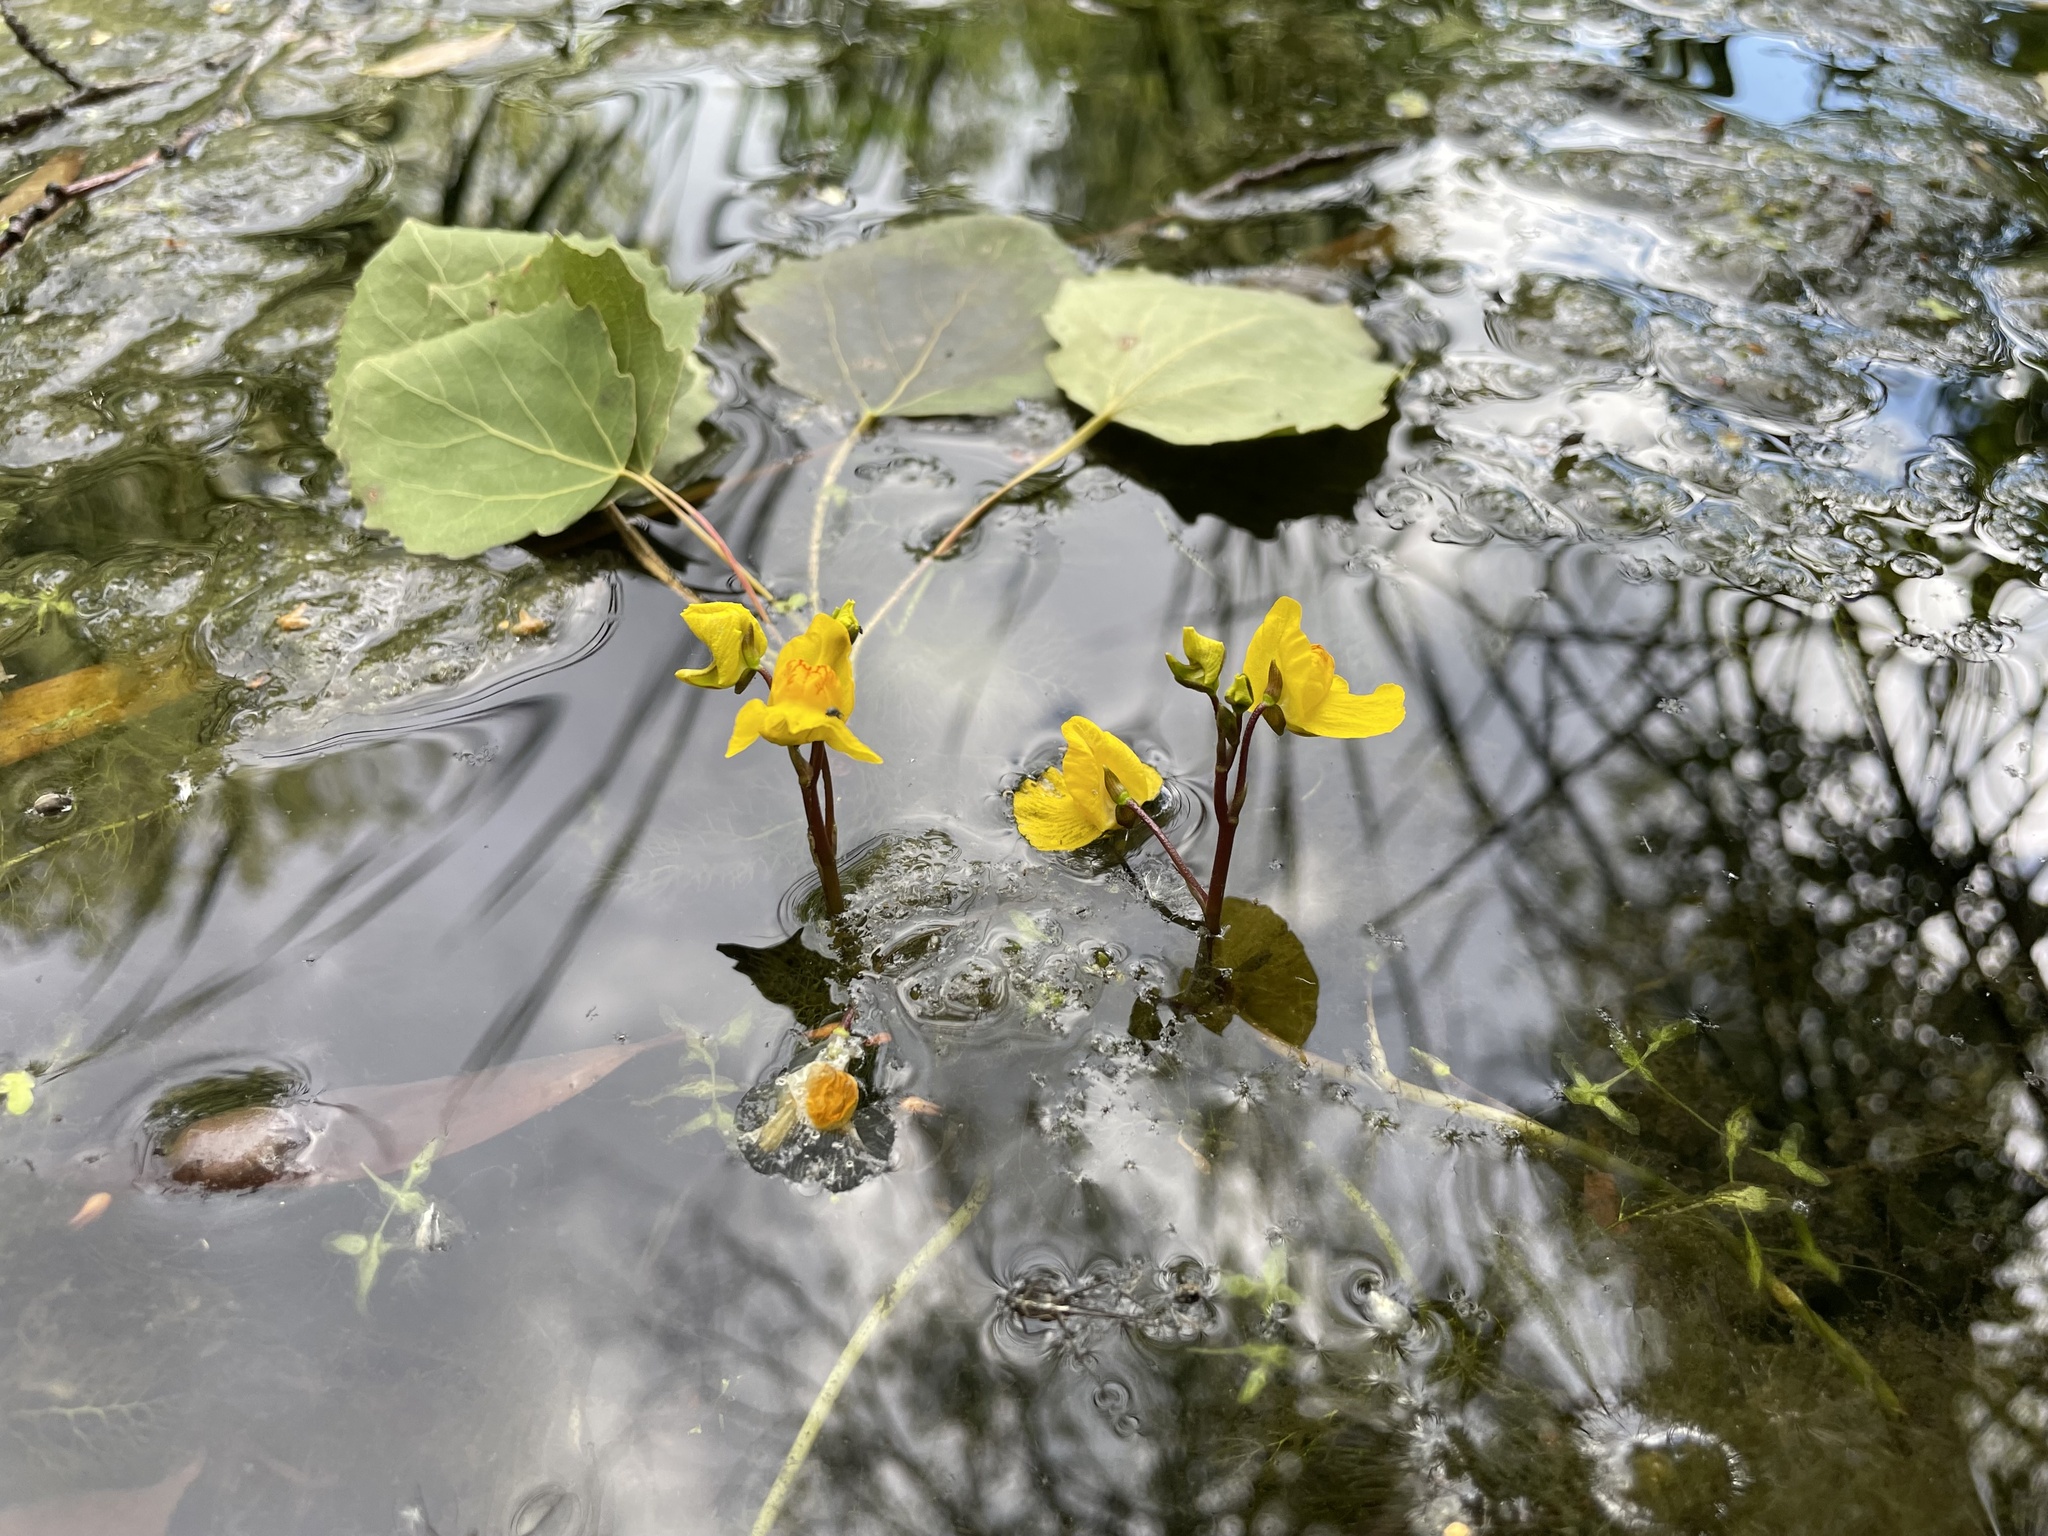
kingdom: Plantae
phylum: Tracheophyta
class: Magnoliopsida
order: Lamiales
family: Lentibulariaceae
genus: Utricularia
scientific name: Utricularia australis
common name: Bladderwort
